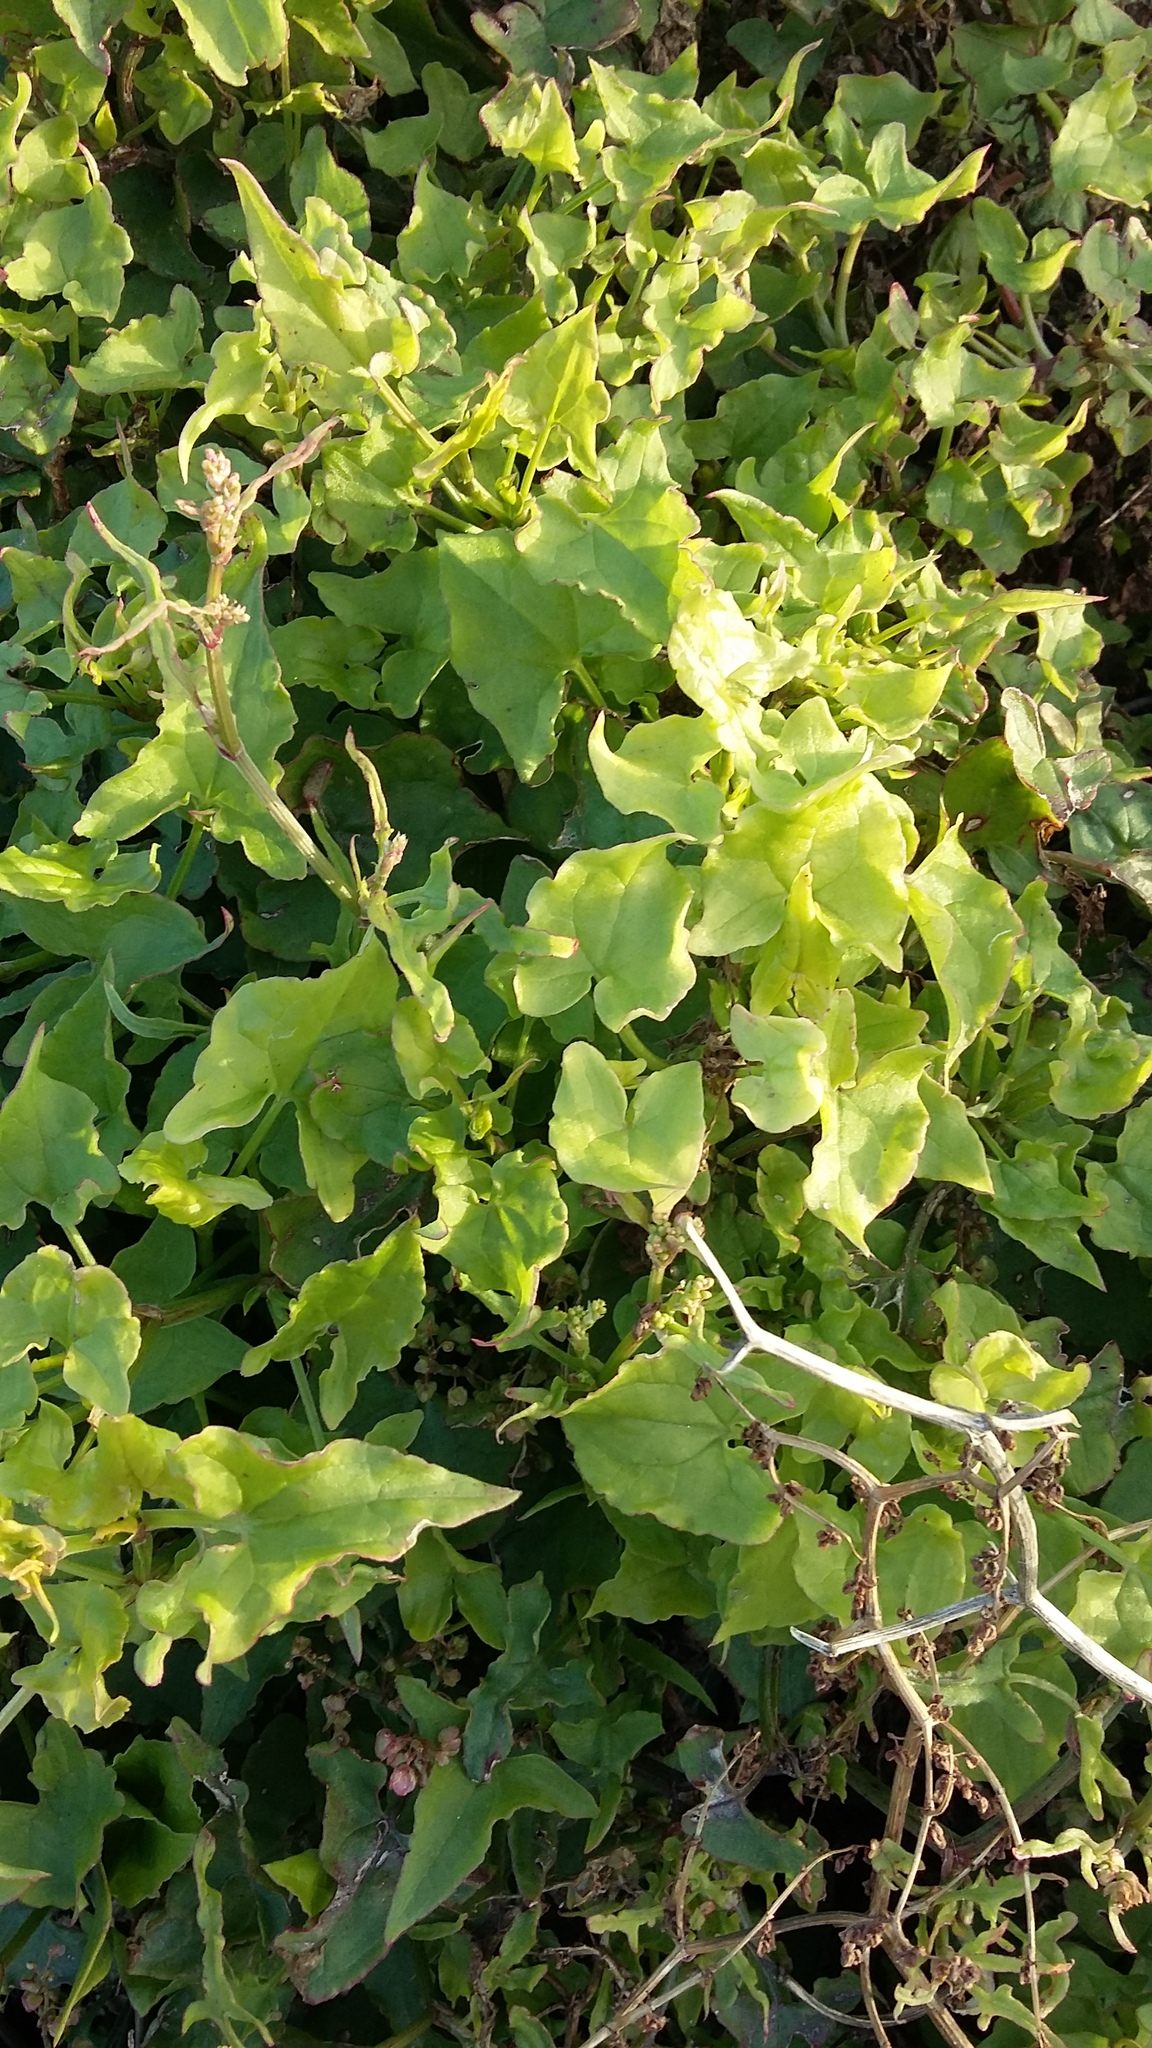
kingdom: Plantae
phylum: Tracheophyta
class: Magnoliopsida
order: Caryophyllales
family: Polygonaceae
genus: Rumex
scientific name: Rumex sagittatus
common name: Climbing dock
